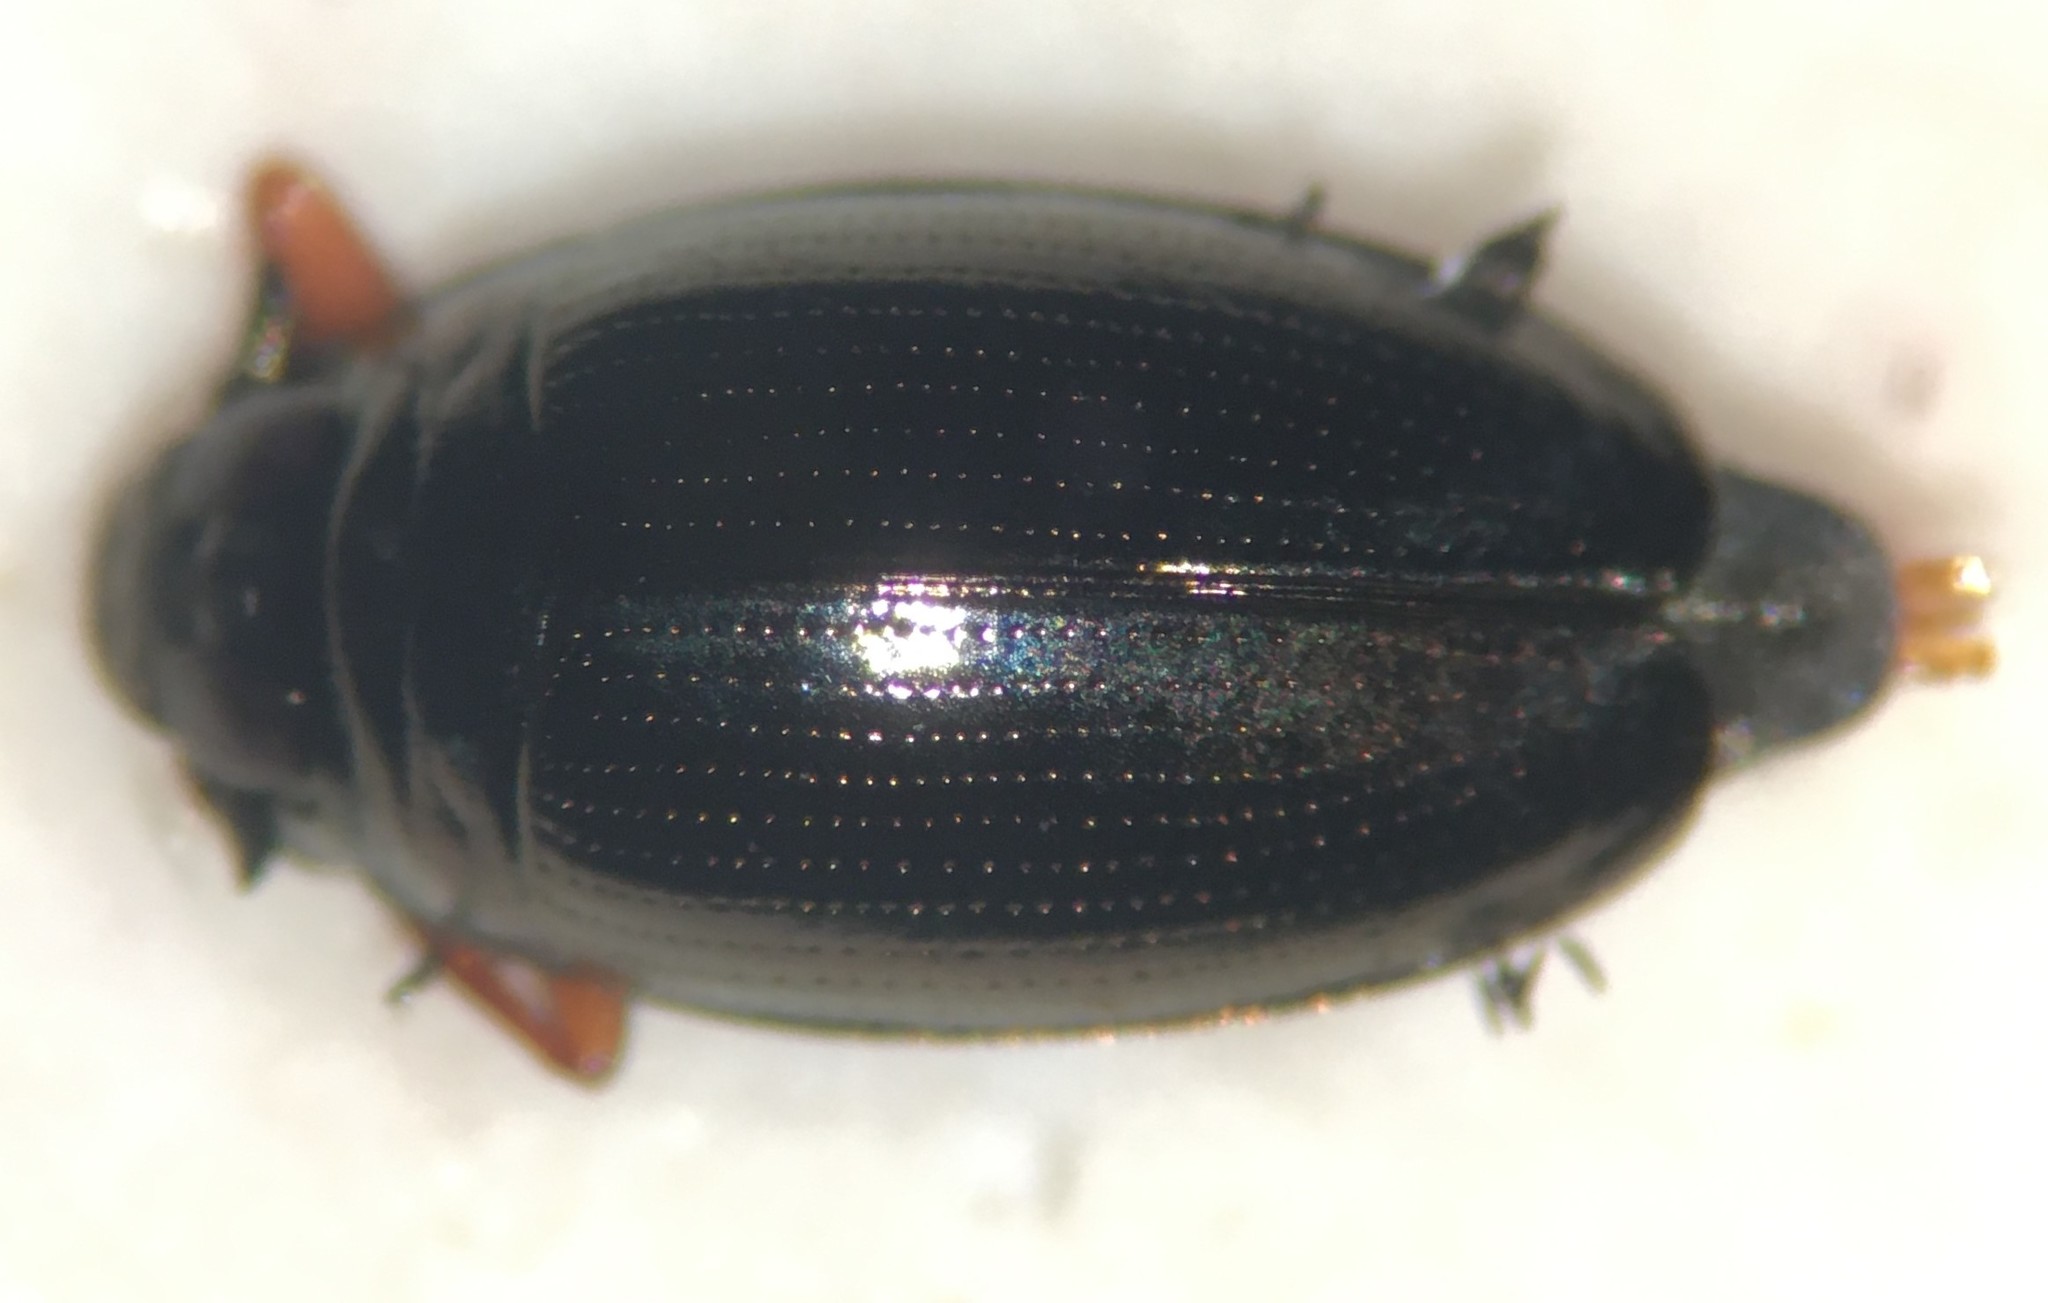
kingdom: Animalia
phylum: Arthropoda
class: Insecta
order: Coleoptera
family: Gyrinidae
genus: Gyrinus
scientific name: Gyrinus analis
